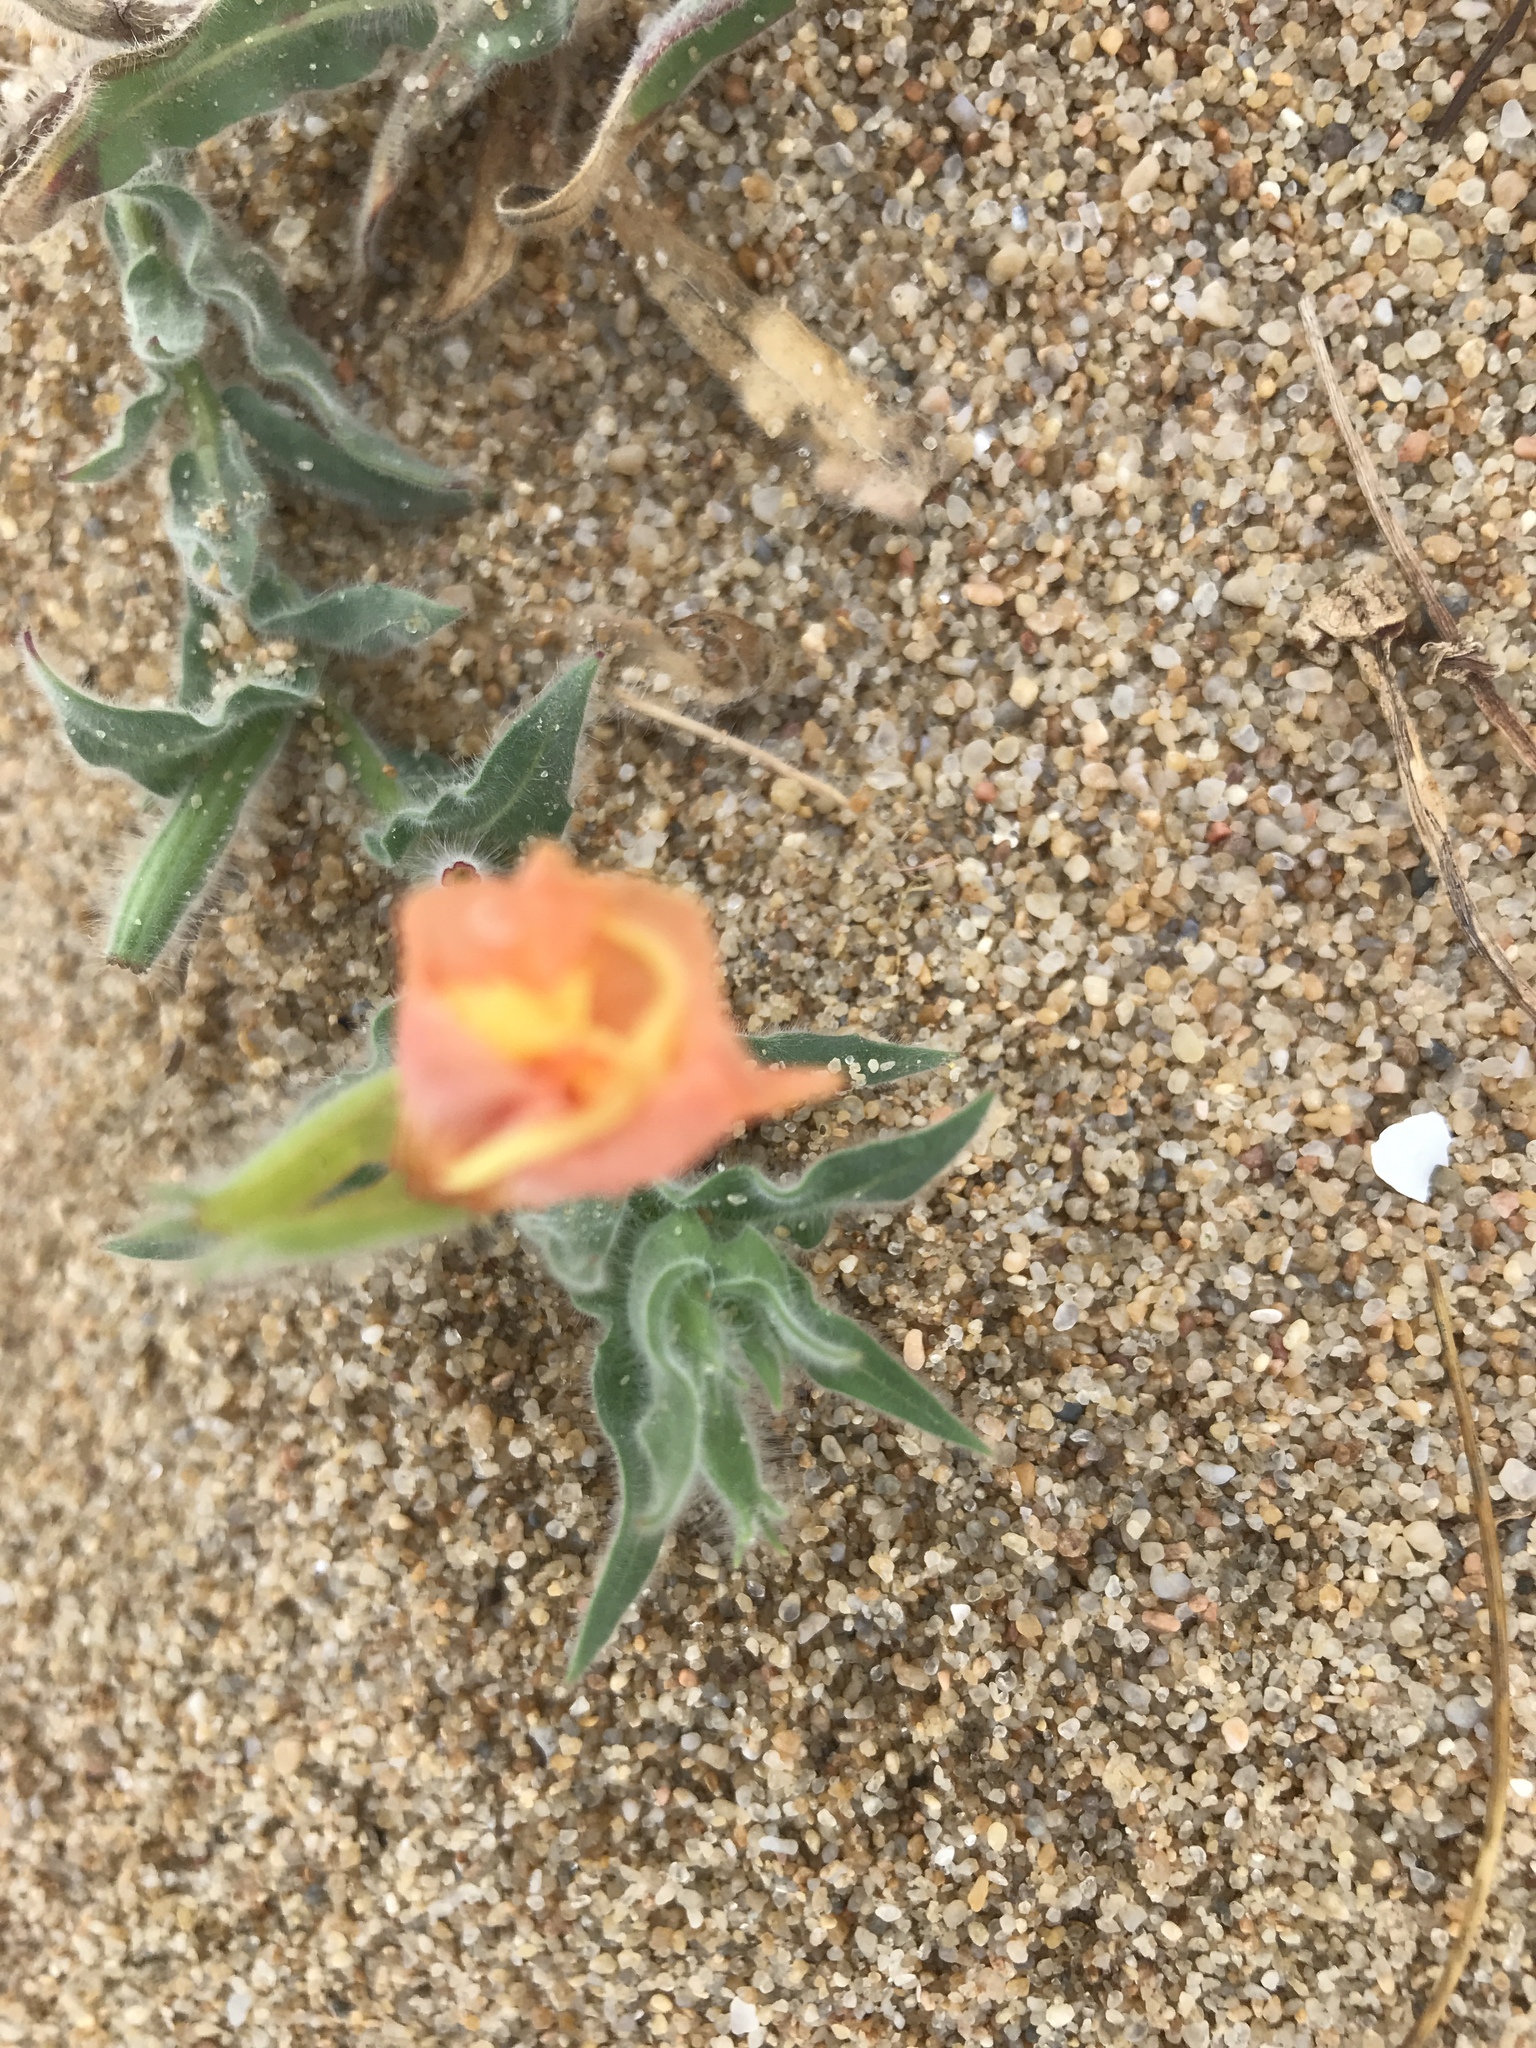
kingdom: Plantae
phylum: Tracheophyta
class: Magnoliopsida
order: Myrtales
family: Onagraceae
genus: Oenothera
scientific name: Oenothera mollissima
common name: Argentine evening primrose
